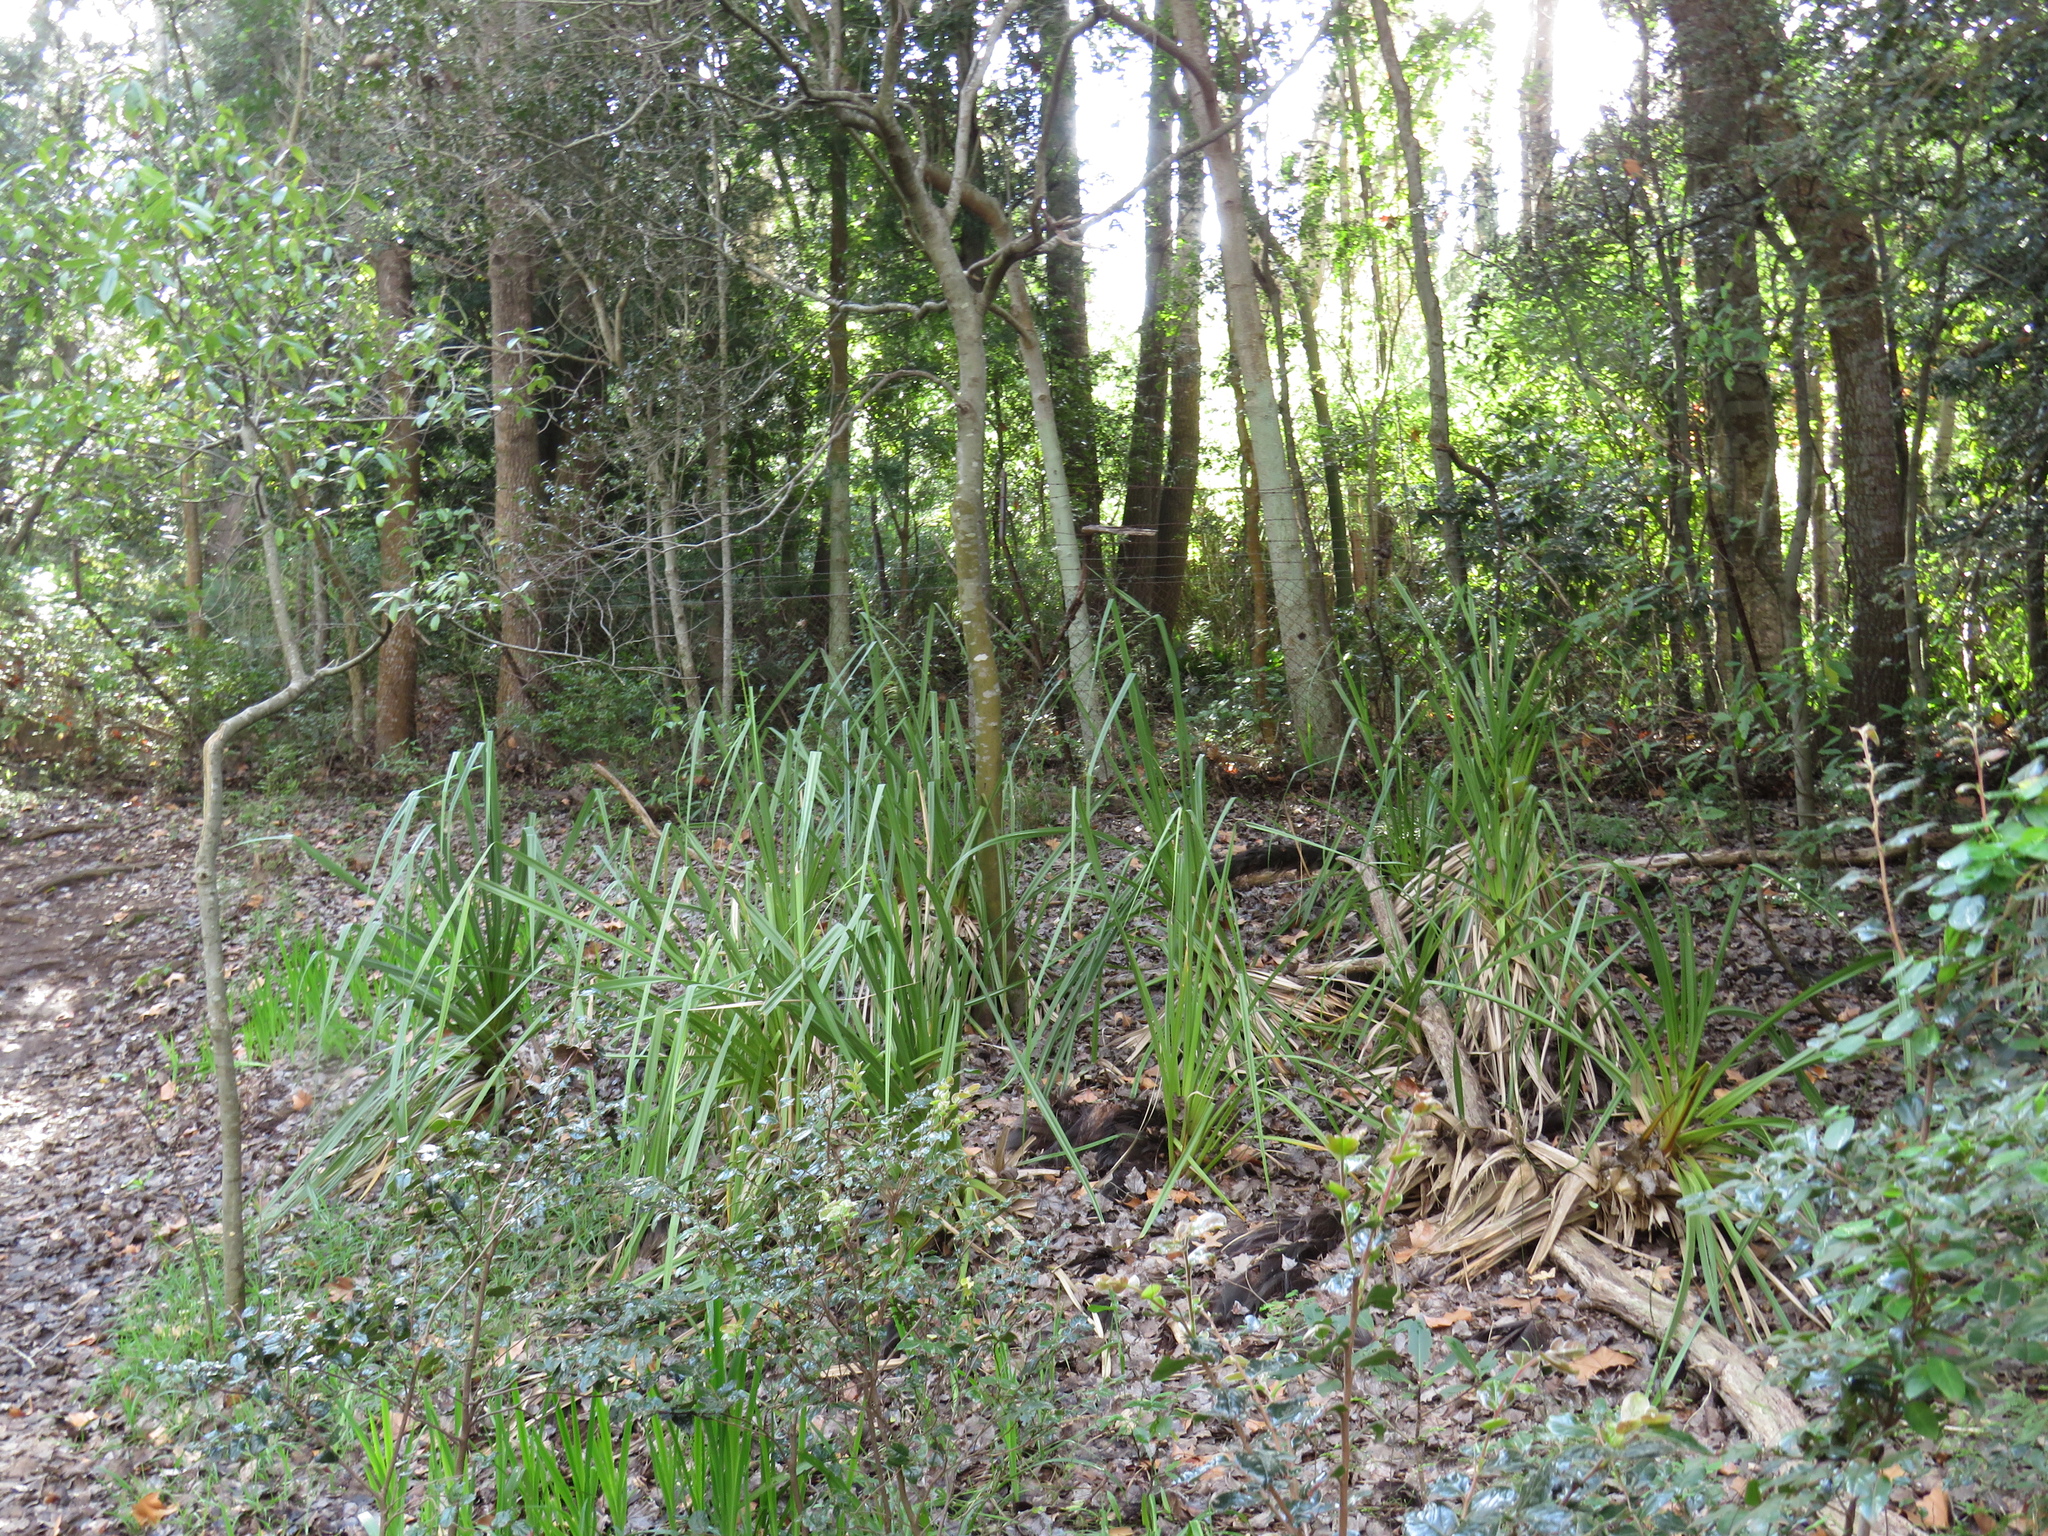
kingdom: Plantae
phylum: Tracheophyta
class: Liliopsida
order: Poales
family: Thurniaceae
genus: Prionium
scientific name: Prionium serratum
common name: Palmiet
